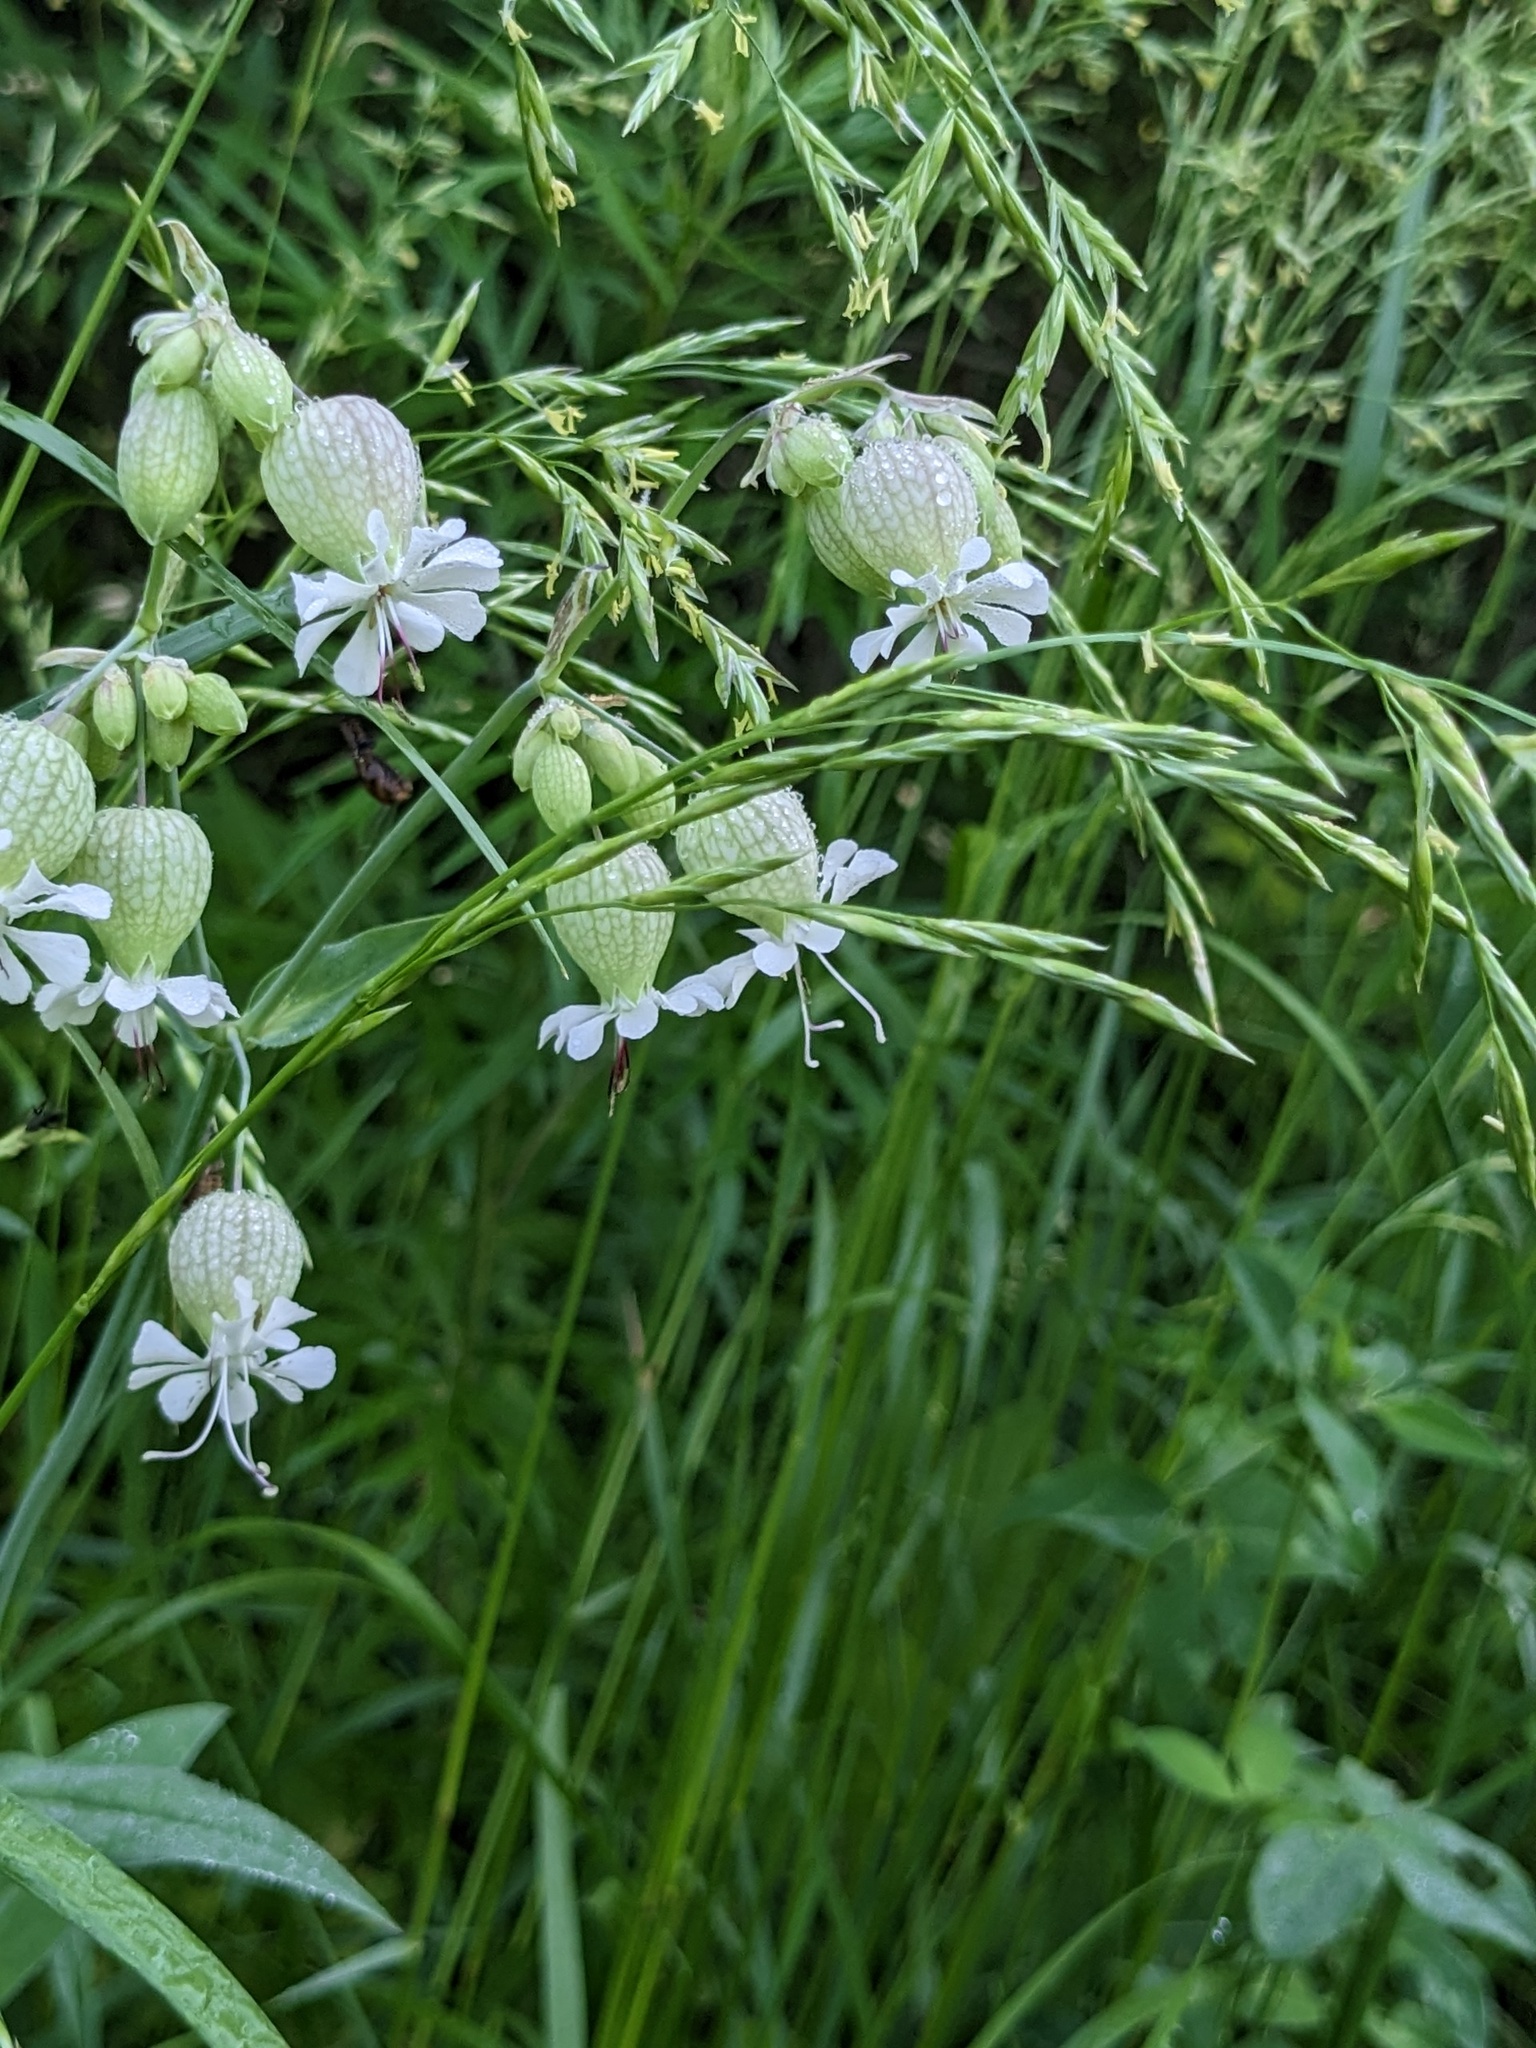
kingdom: Plantae
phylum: Tracheophyta
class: Magnoliopsida
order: Caryophyllales
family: Caryophyllaceae
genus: Silene
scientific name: Silene vulgaris
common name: Bladder campion
